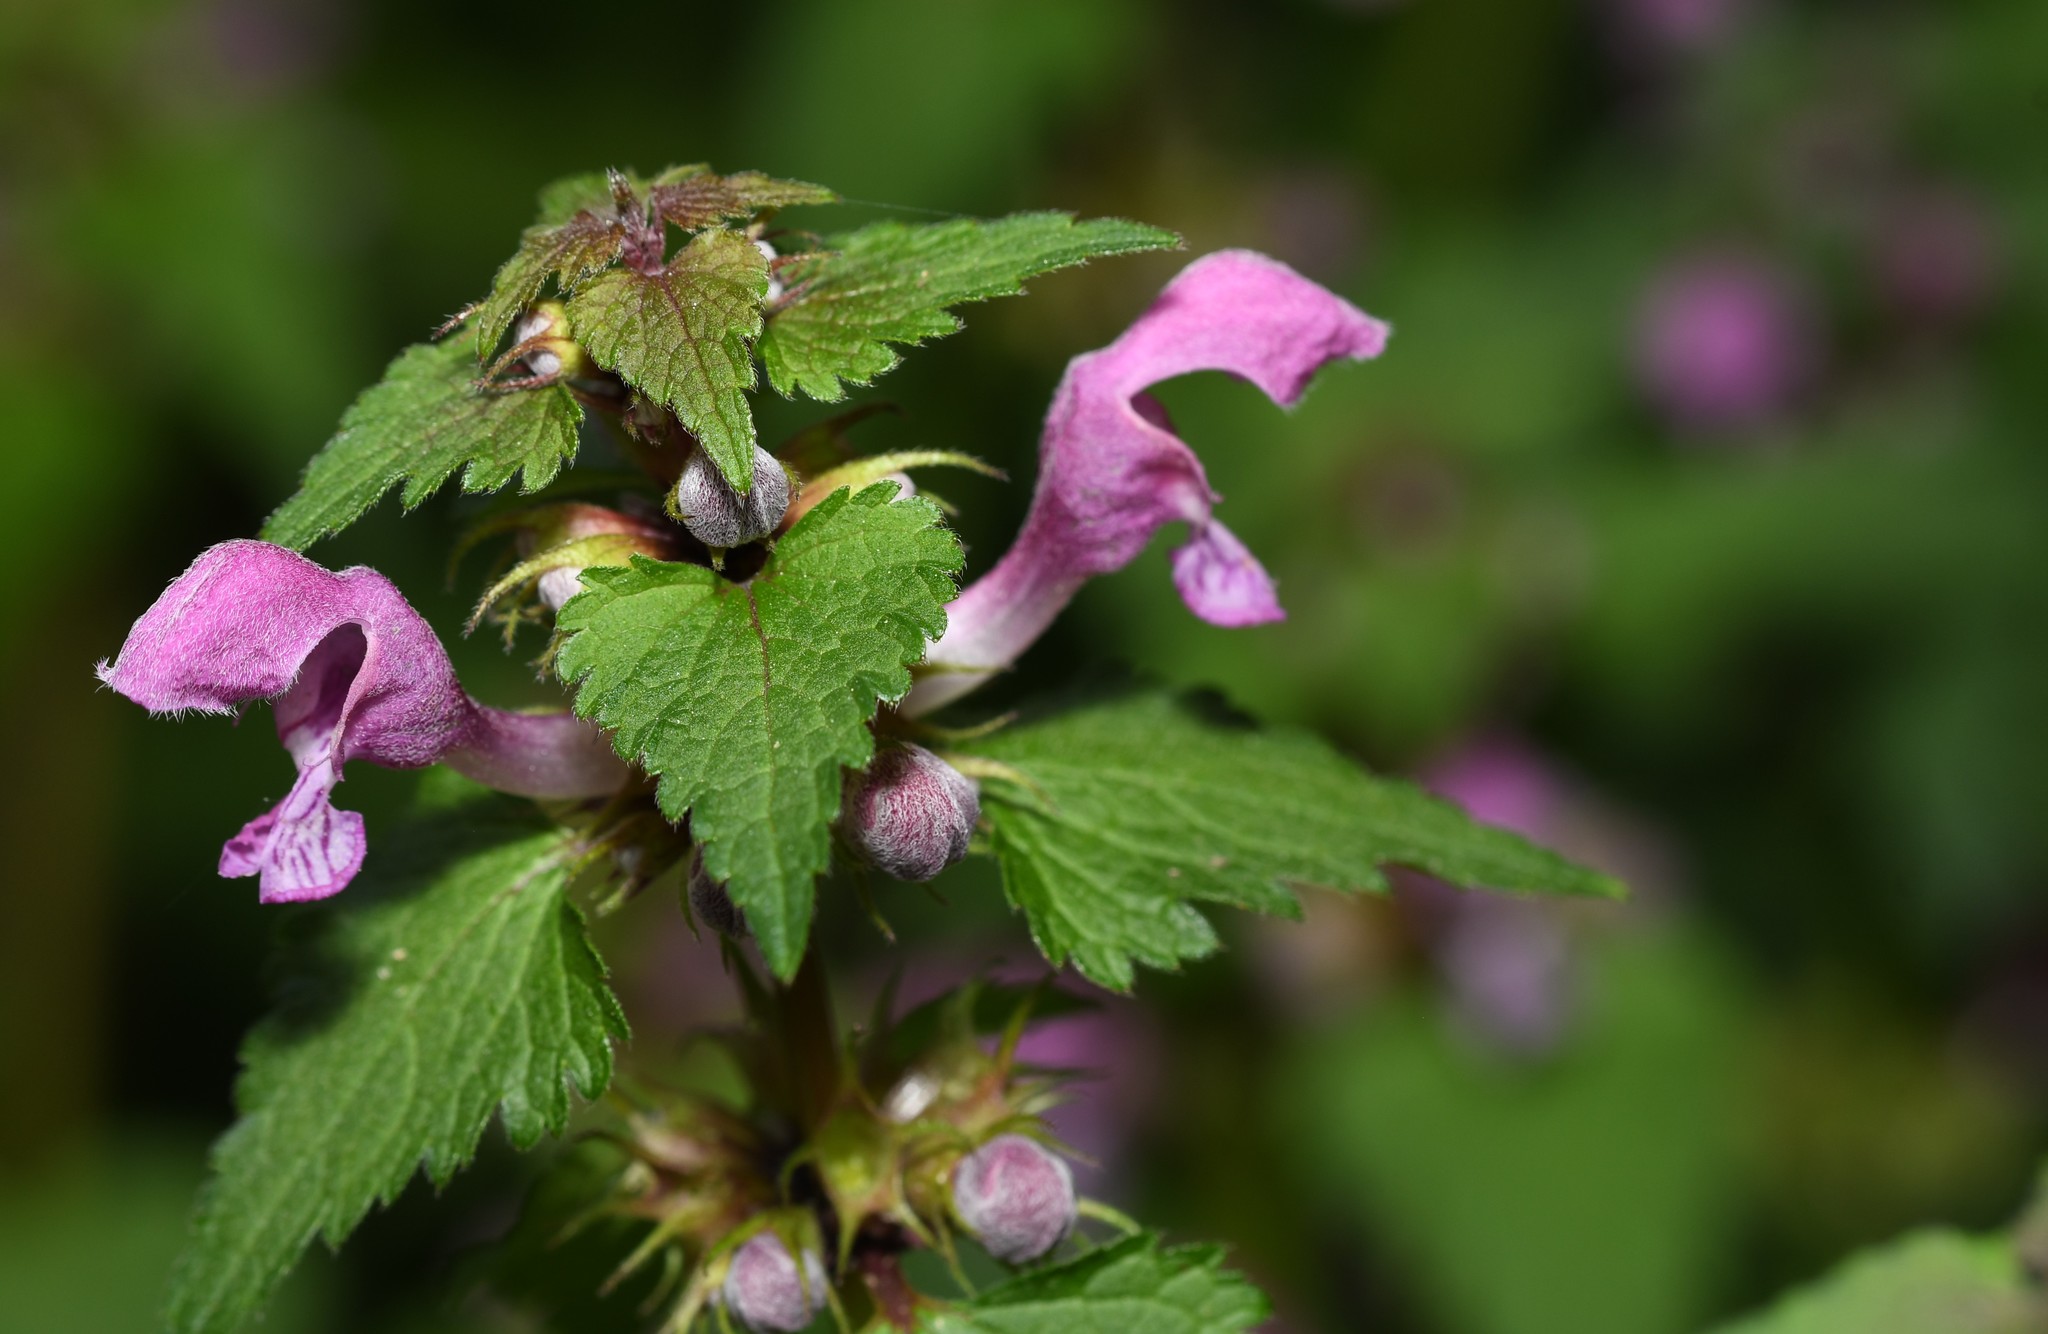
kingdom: Plantae
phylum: Tracheophyta
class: Magnoliopsida
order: Lamiales
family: Lamiaceae
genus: Lamium
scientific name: Lamium maculatum
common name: Spotted dead-nettle
